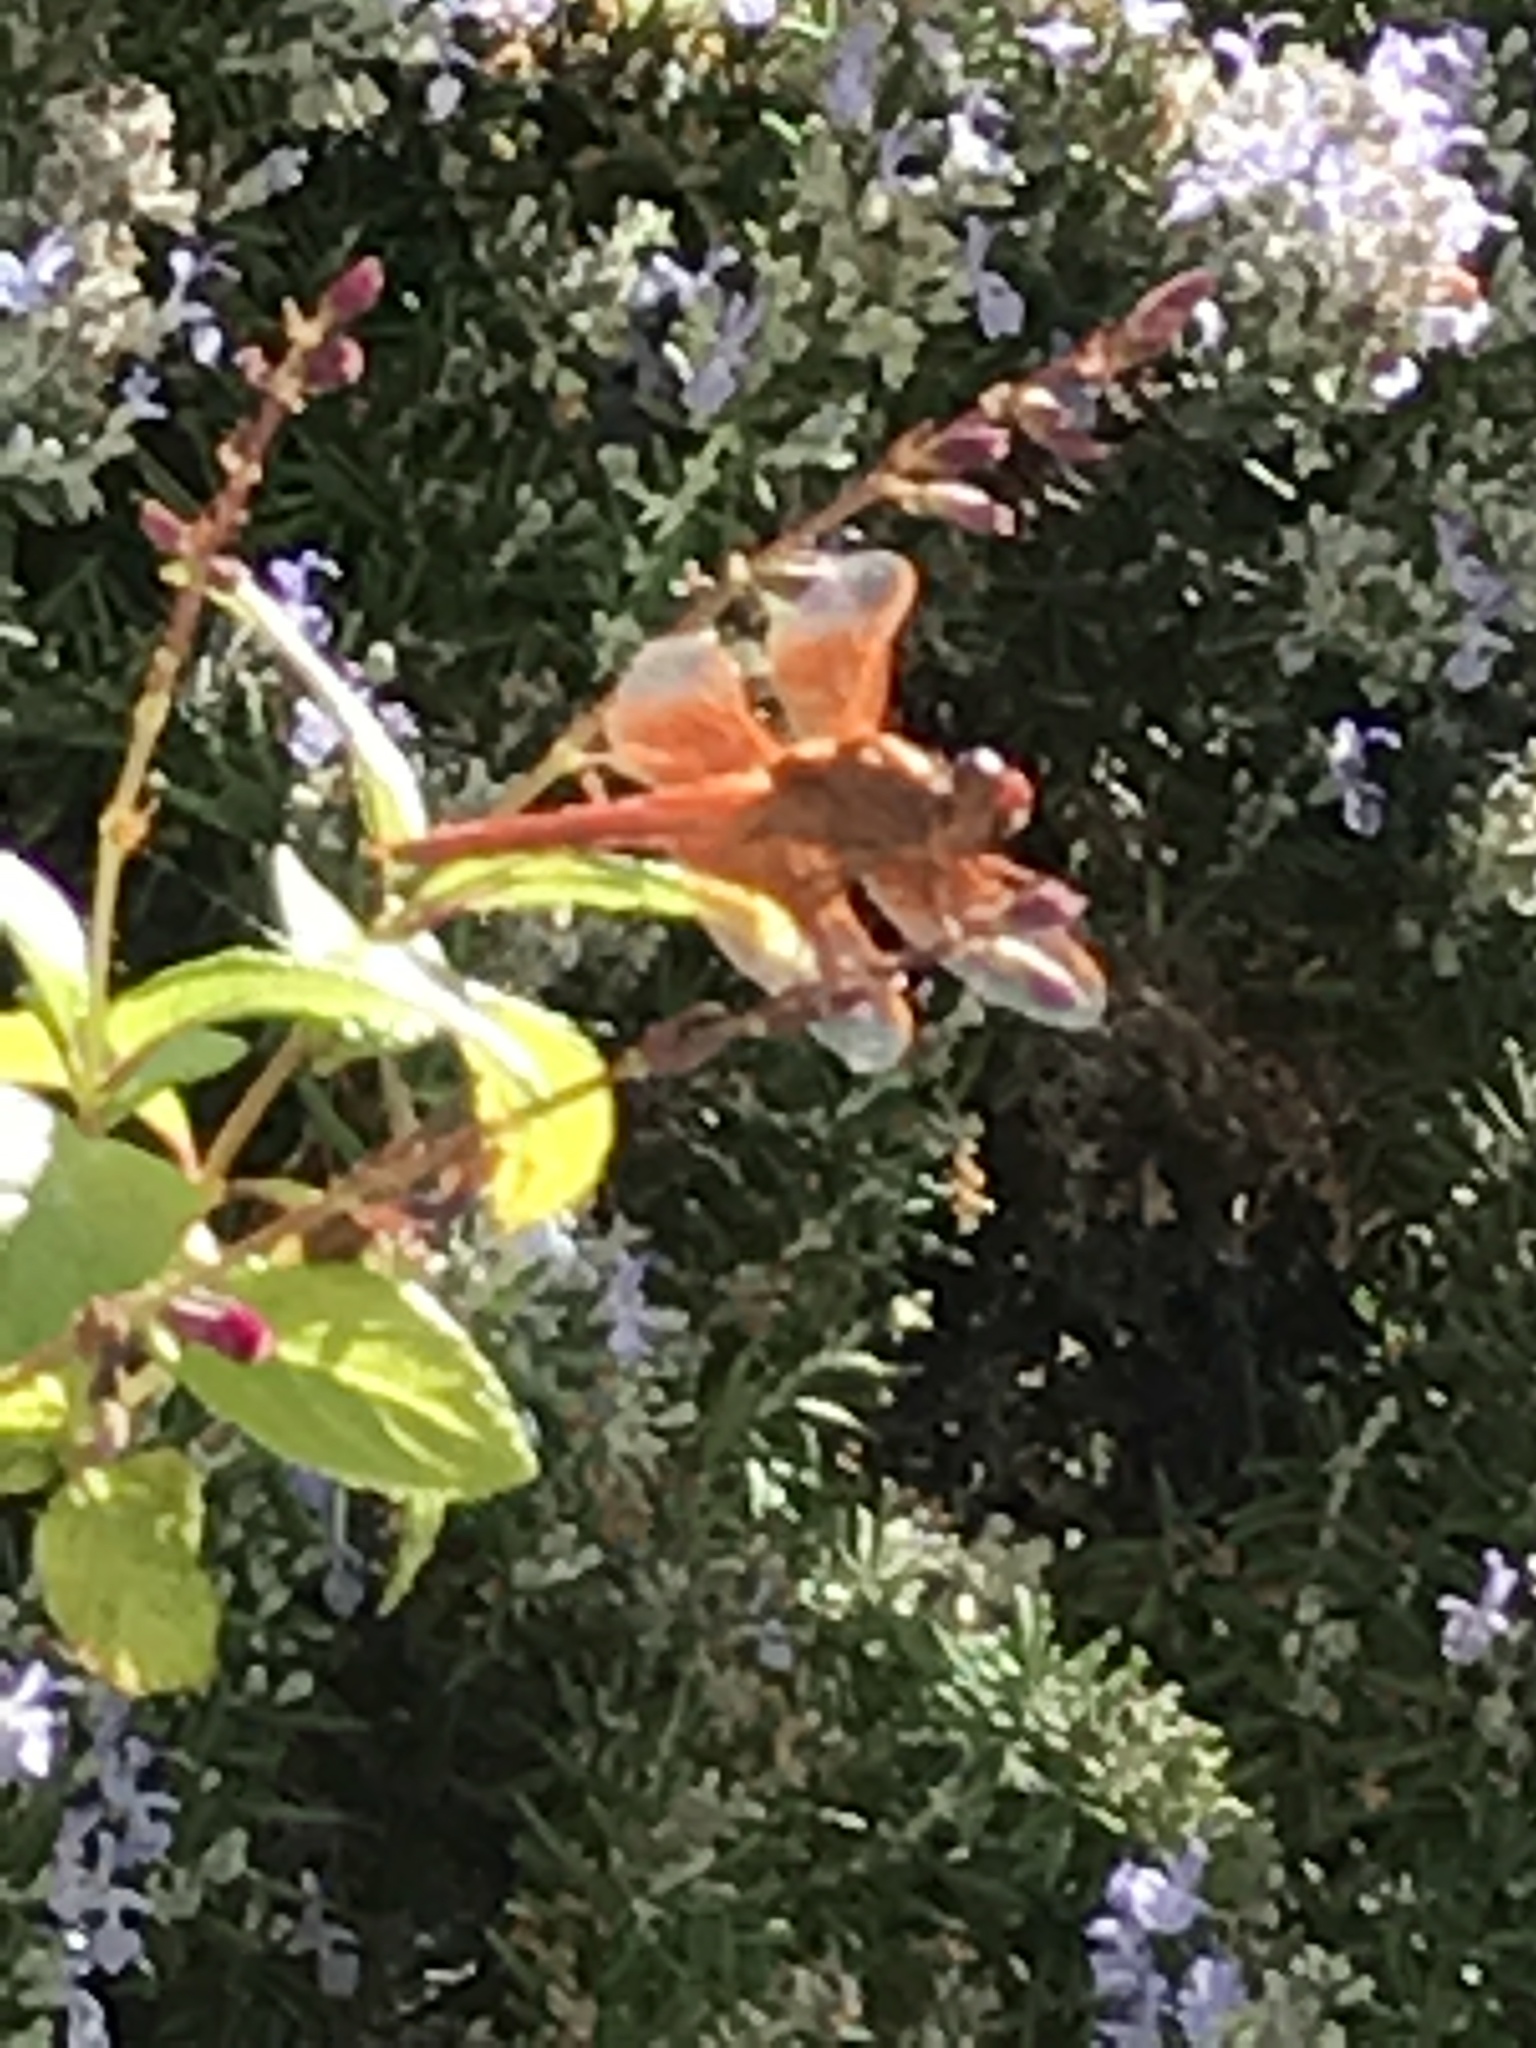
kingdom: Animalia
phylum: Arthropoda
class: Insecta
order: Odonata
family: Libellulidae
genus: Libellula
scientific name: Libellula saturata
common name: Flame skimmer
